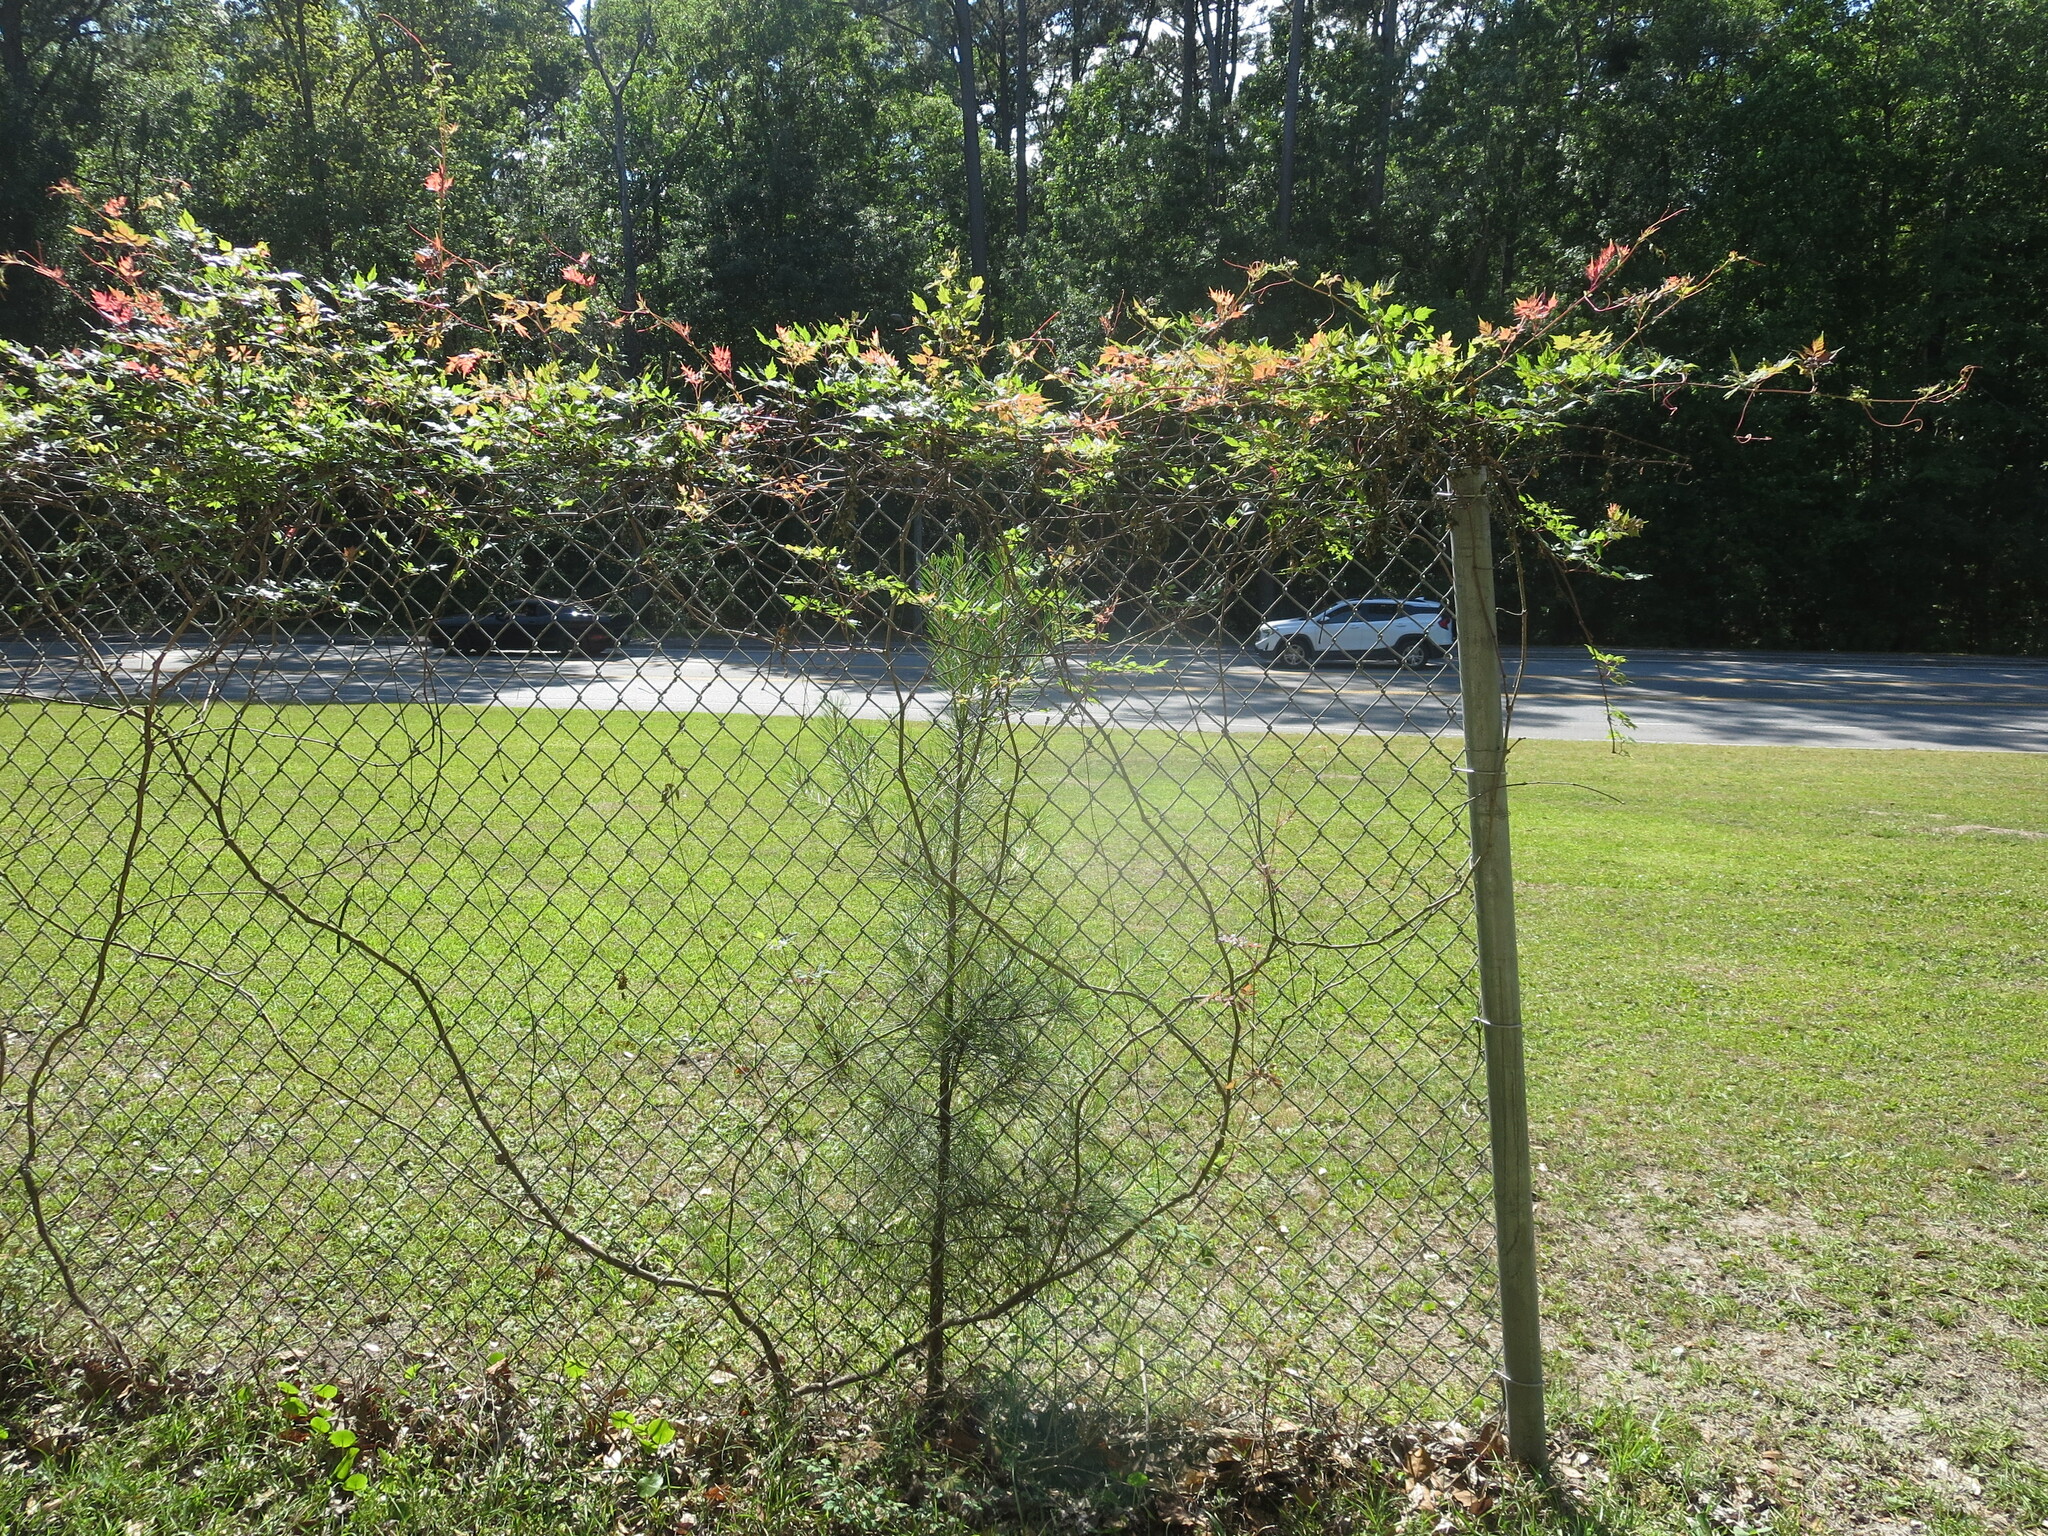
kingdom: Plantae
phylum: Tracheophyta
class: Magnoliopsida
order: Vitales
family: Vitaceae
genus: Nekemias
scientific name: Nekemias arborea
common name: Peppervine
